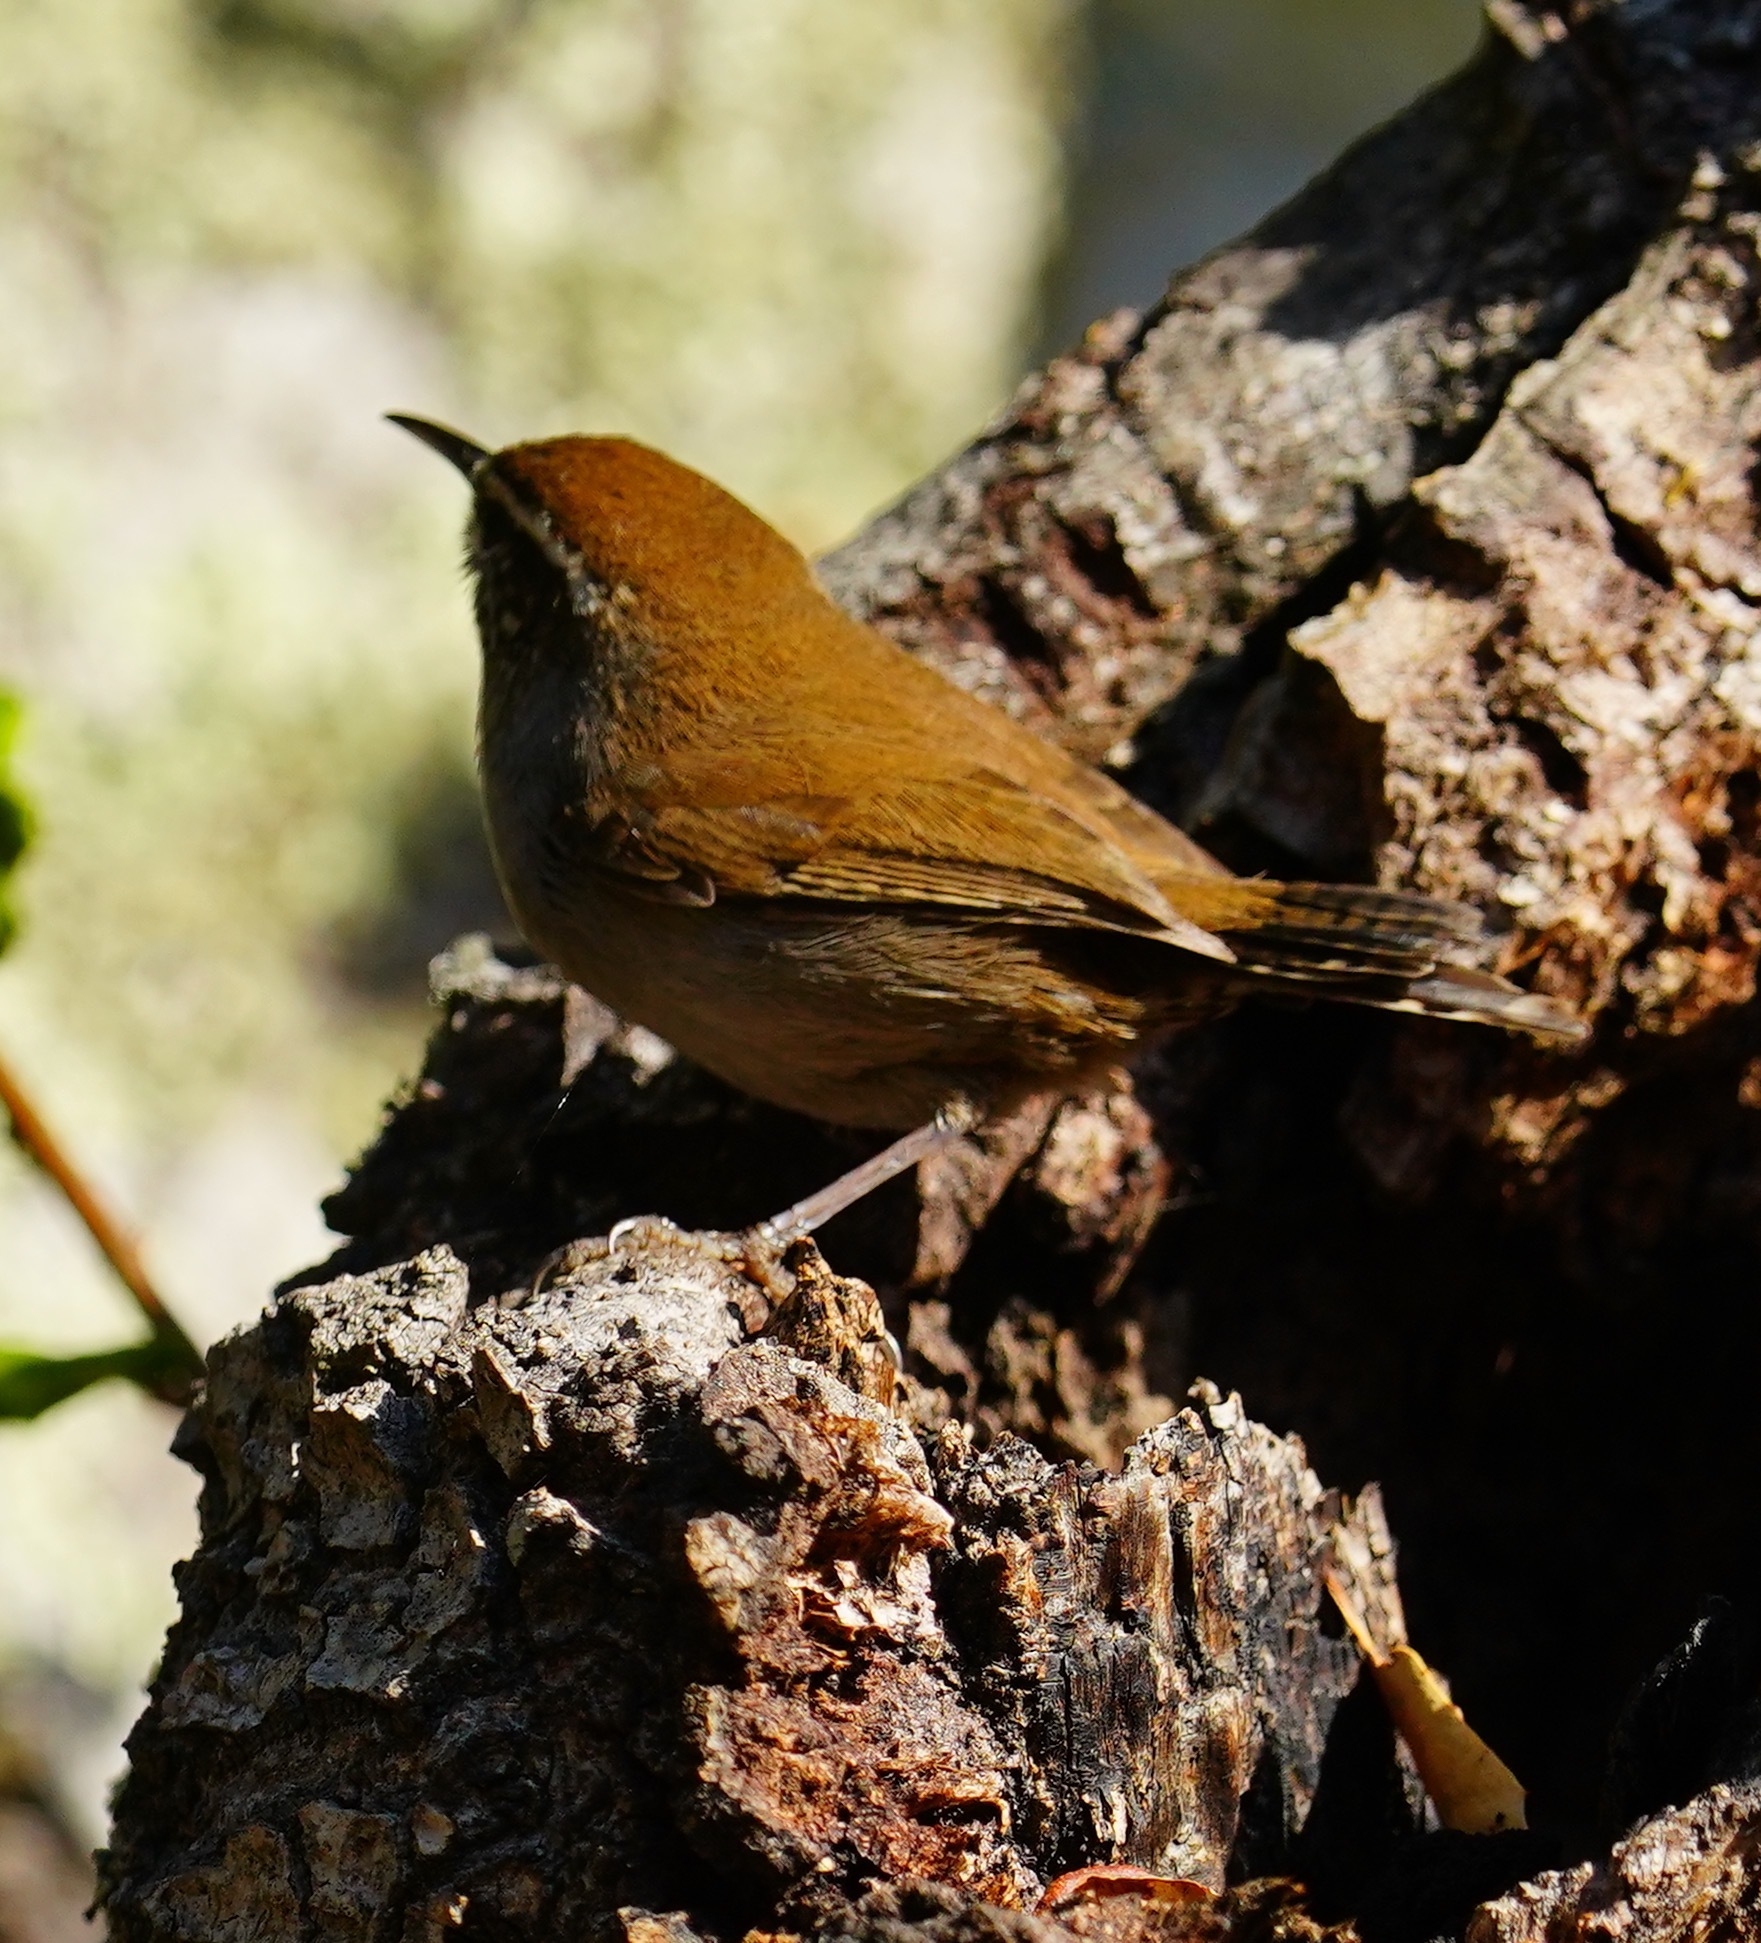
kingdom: Animalia
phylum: Chordata
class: Aves
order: Passeriformes
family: Troglodytidae
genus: Thryomanes
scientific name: Thryomanes bewickii
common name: Bewick's wren
